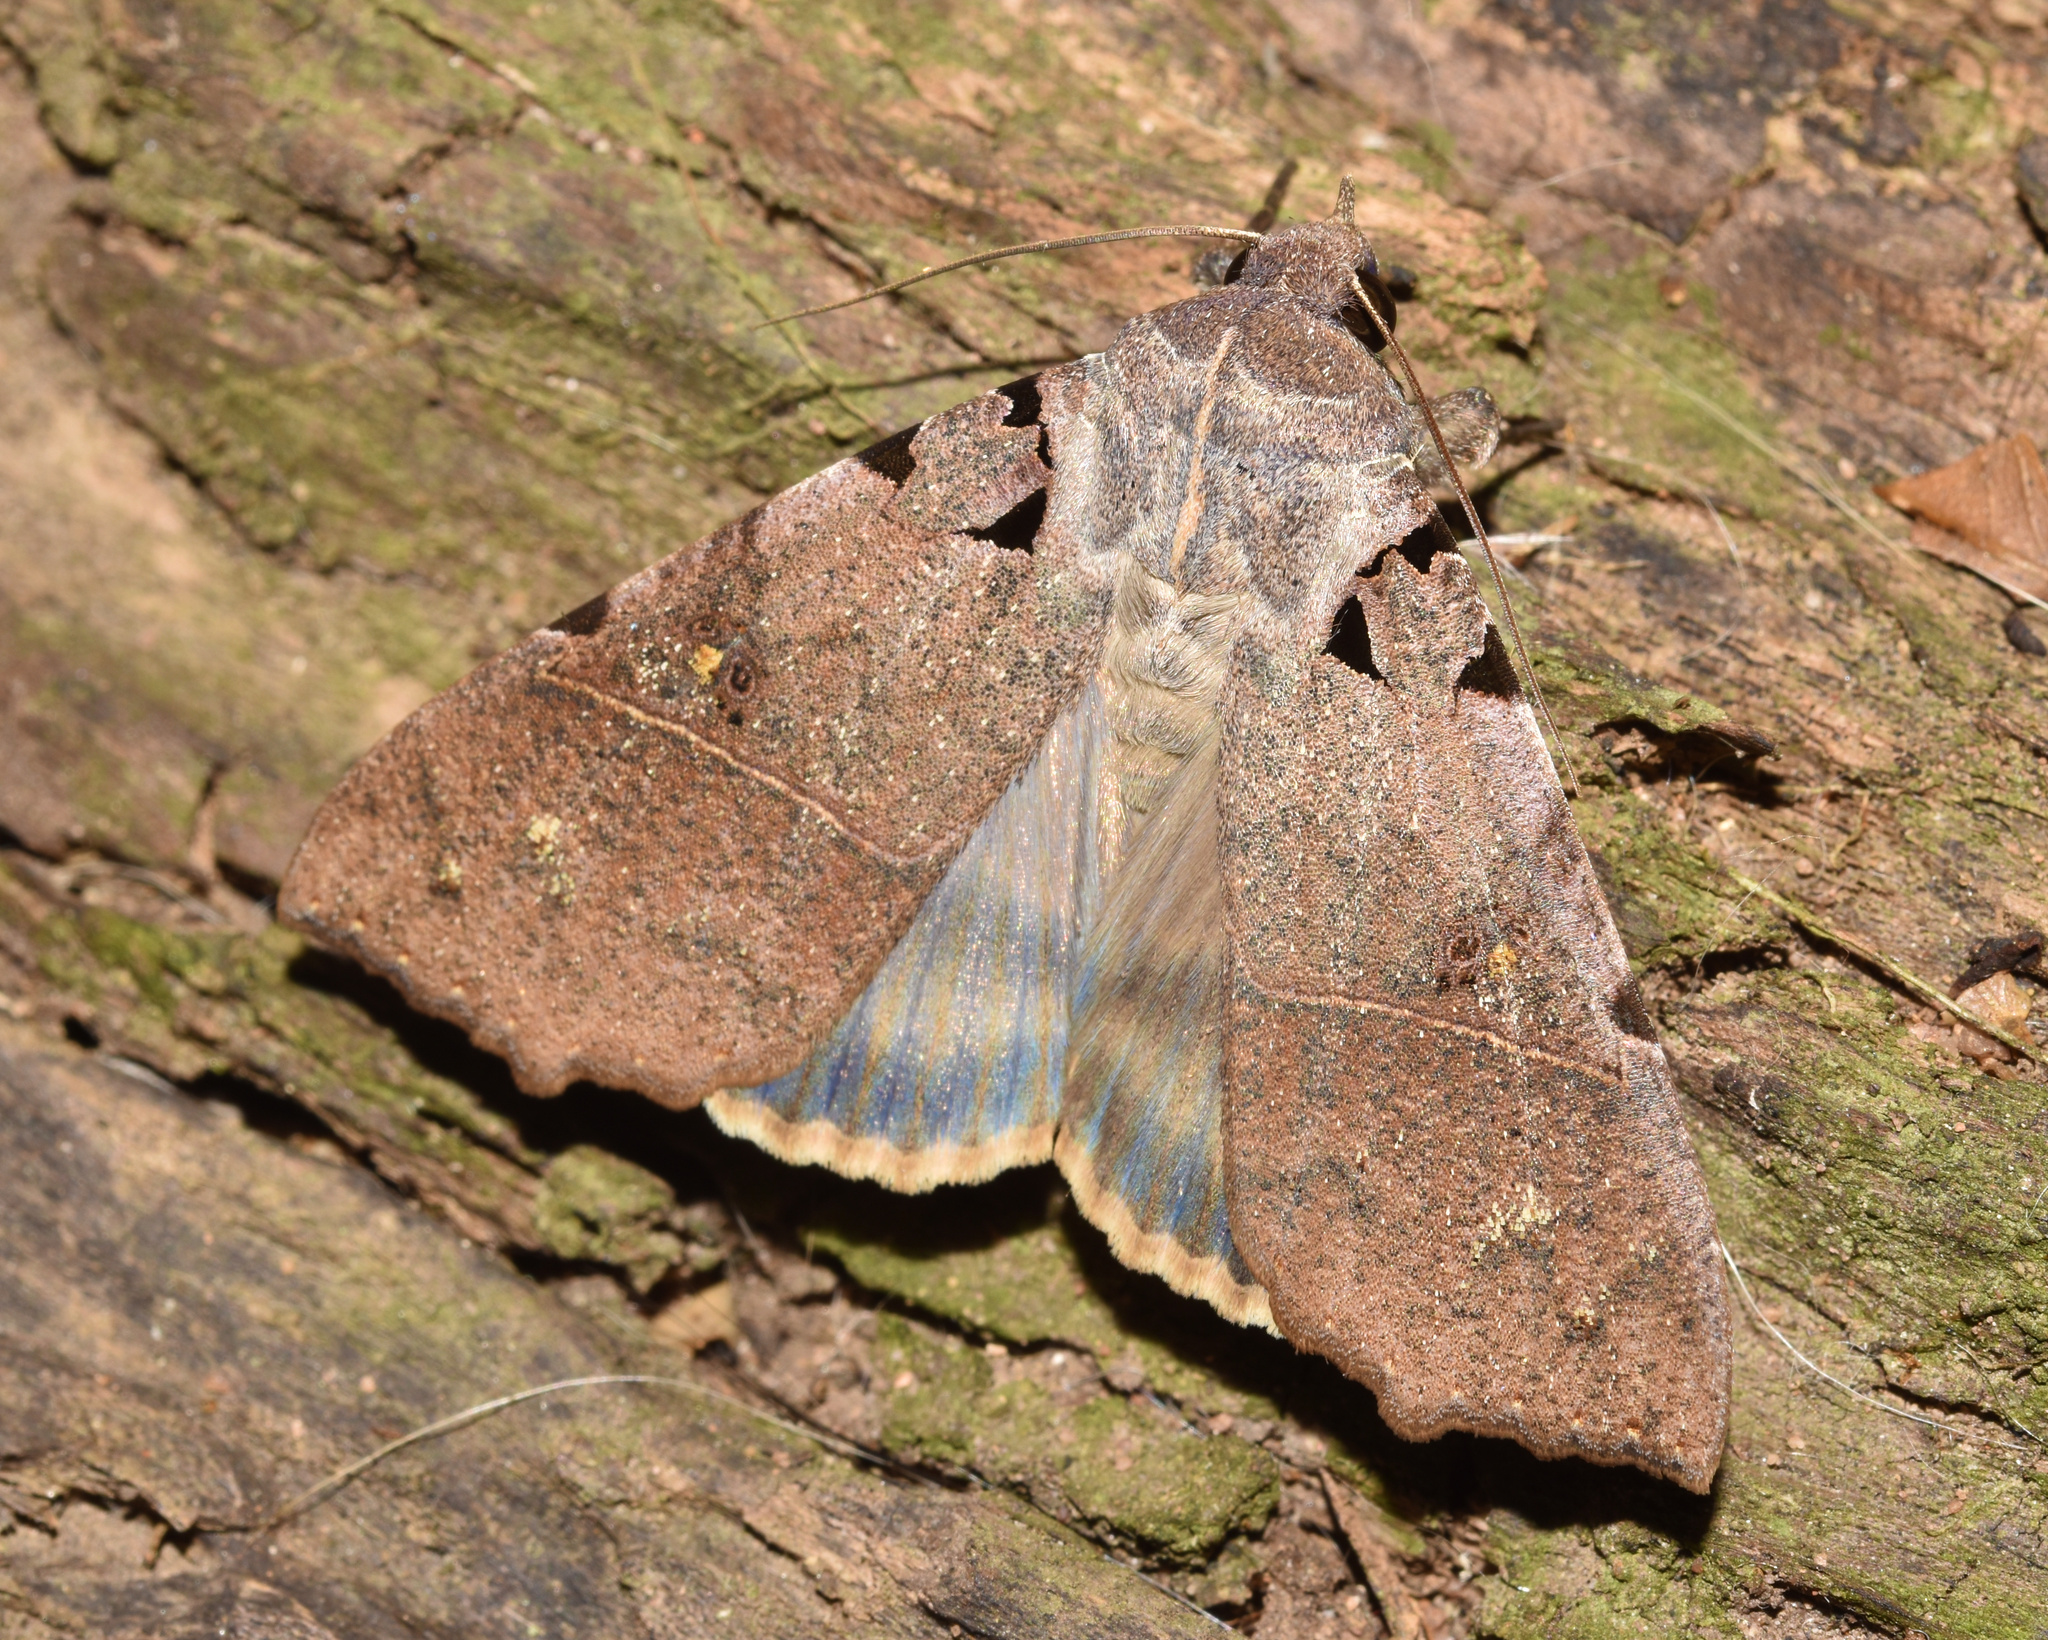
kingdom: Animalia
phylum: Arthropoda
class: Insecta
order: Lepidoptera
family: Erebidae
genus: Serrodes
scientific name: Serrodes campana
